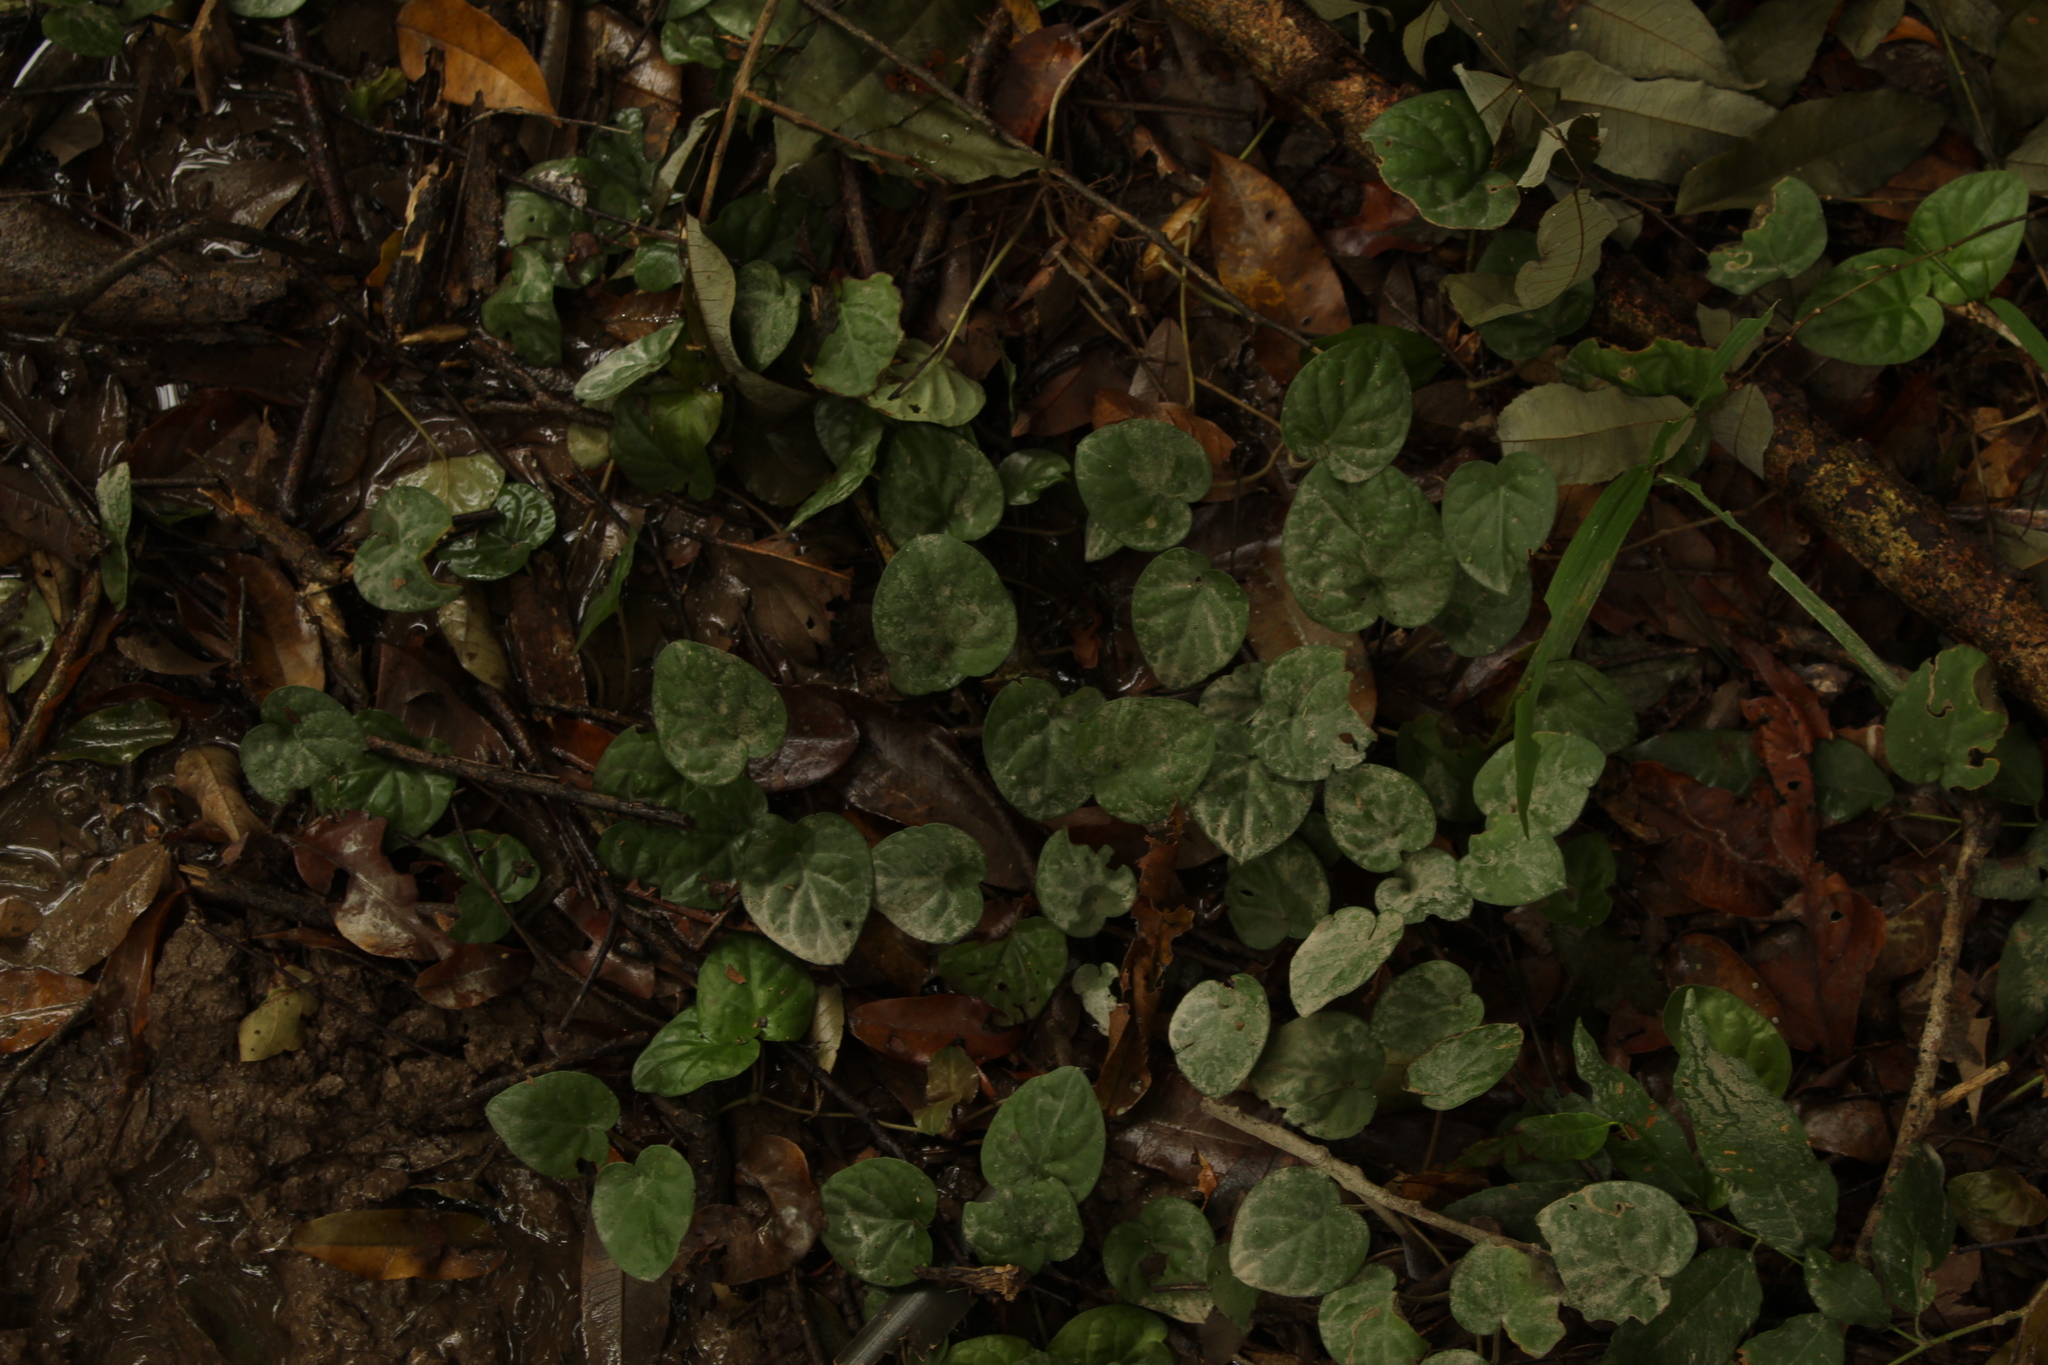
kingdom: Plantae
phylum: Tracheophyta
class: Magnoliopsida
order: Gentianales
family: Rubiaceae
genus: Geophila
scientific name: Geophila
